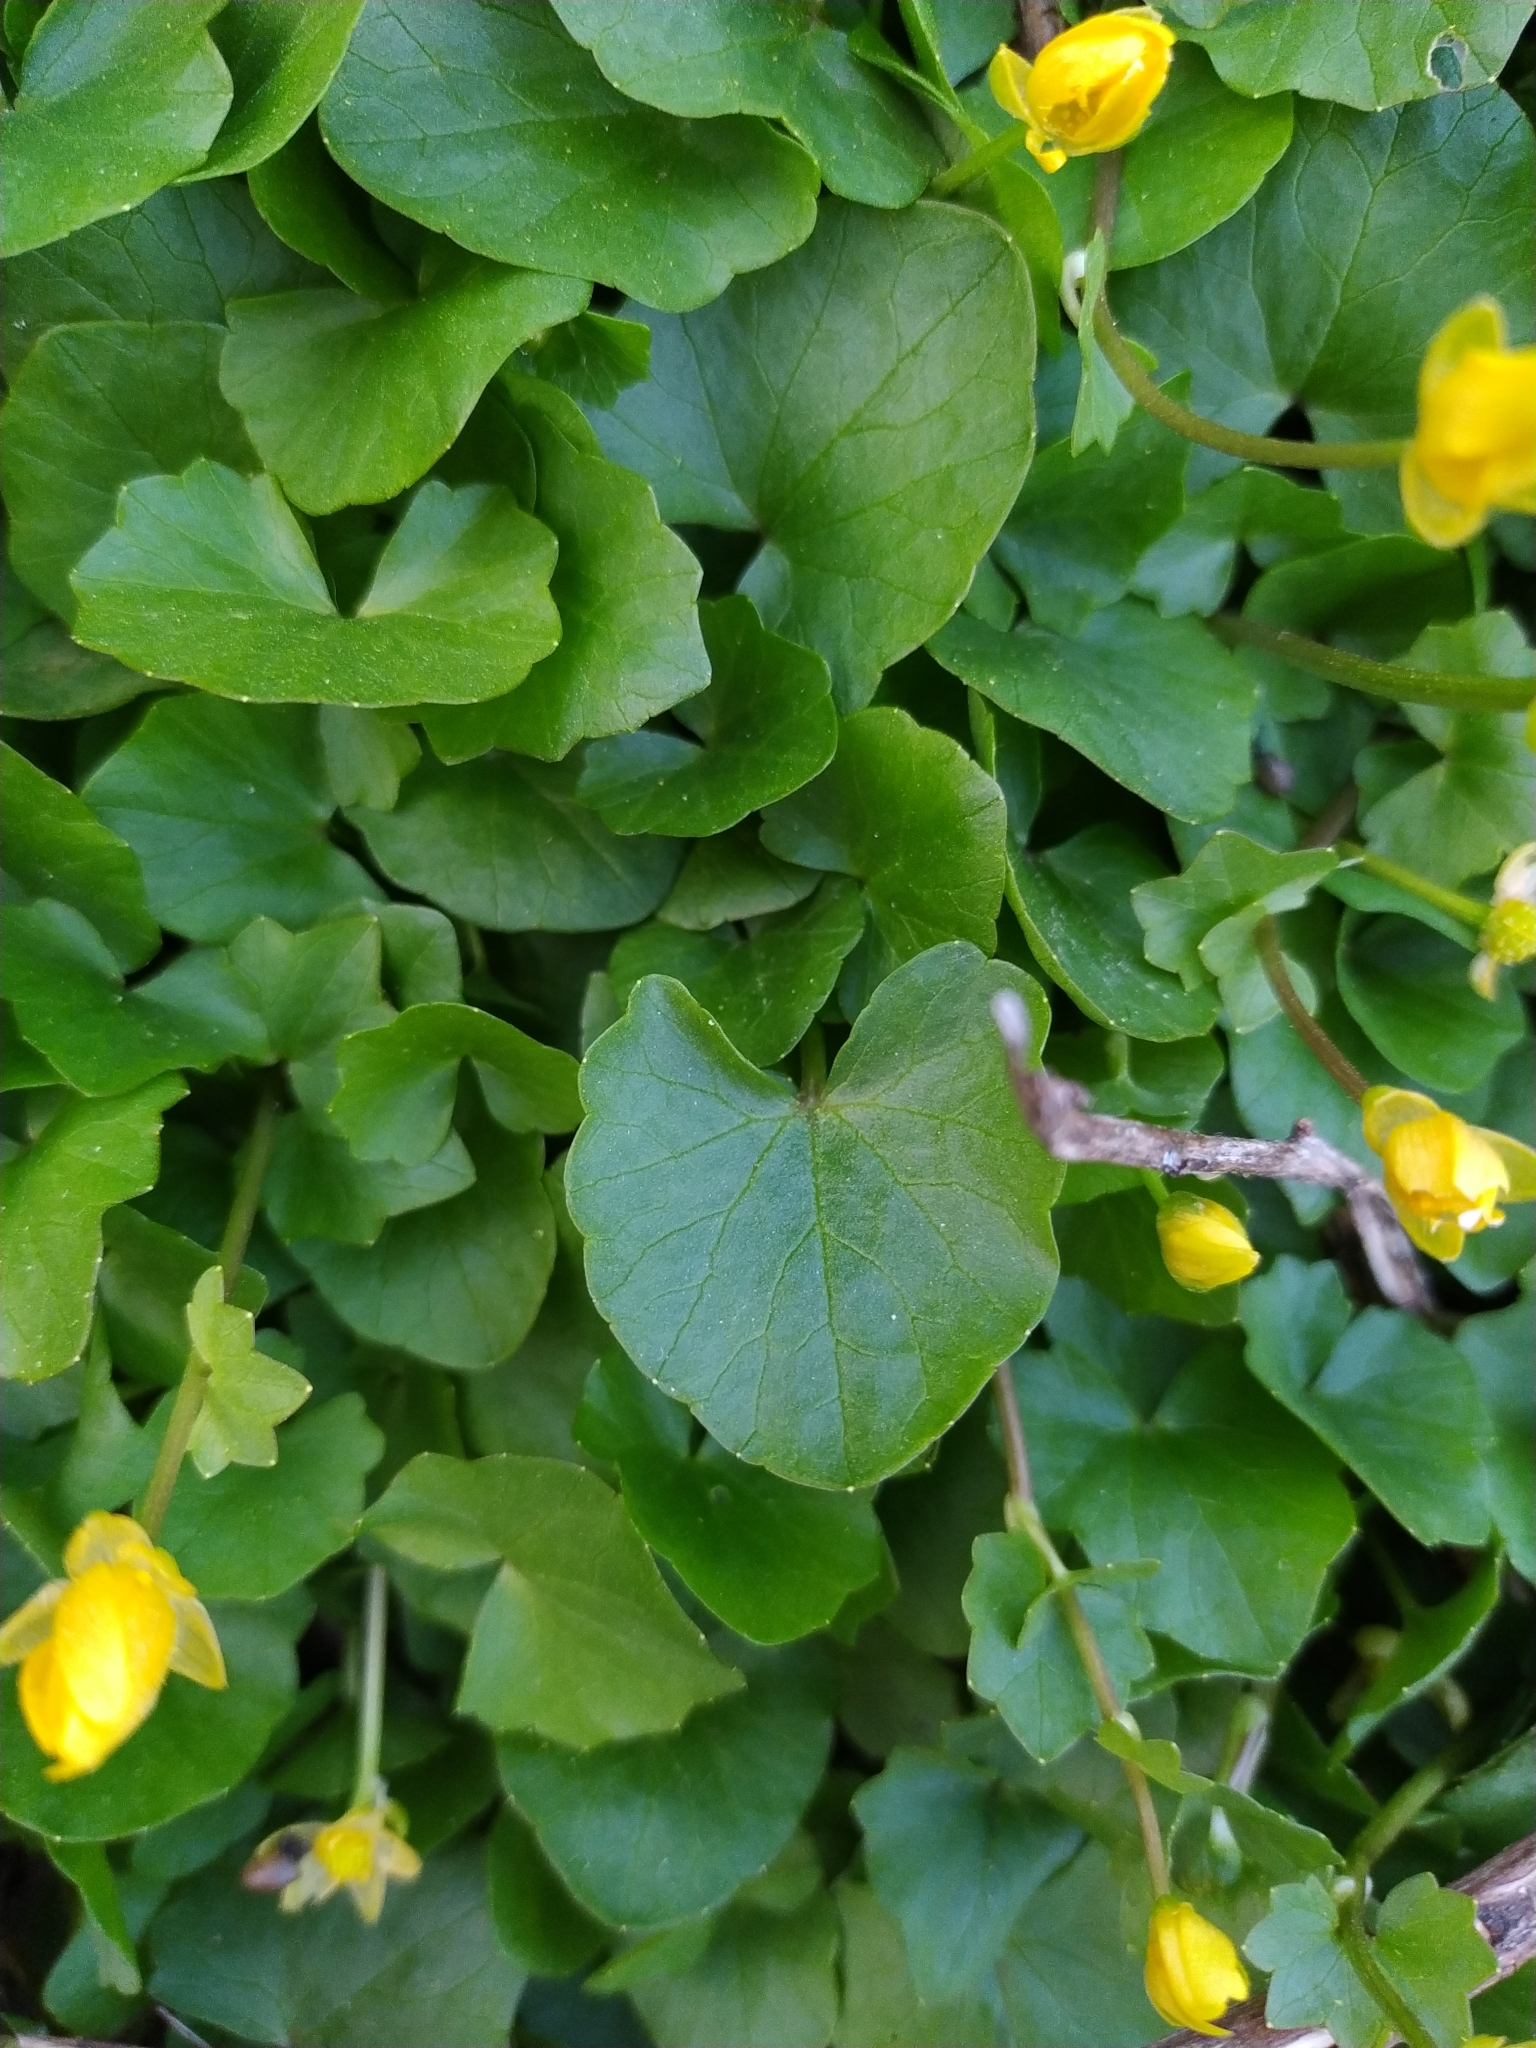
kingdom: Plantae
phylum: Tracheophyta
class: Magnoliopsida
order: Ranunculales
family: Ranunculaceae
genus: Ficaria
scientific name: Ficaria verna
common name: Lesser celandine
